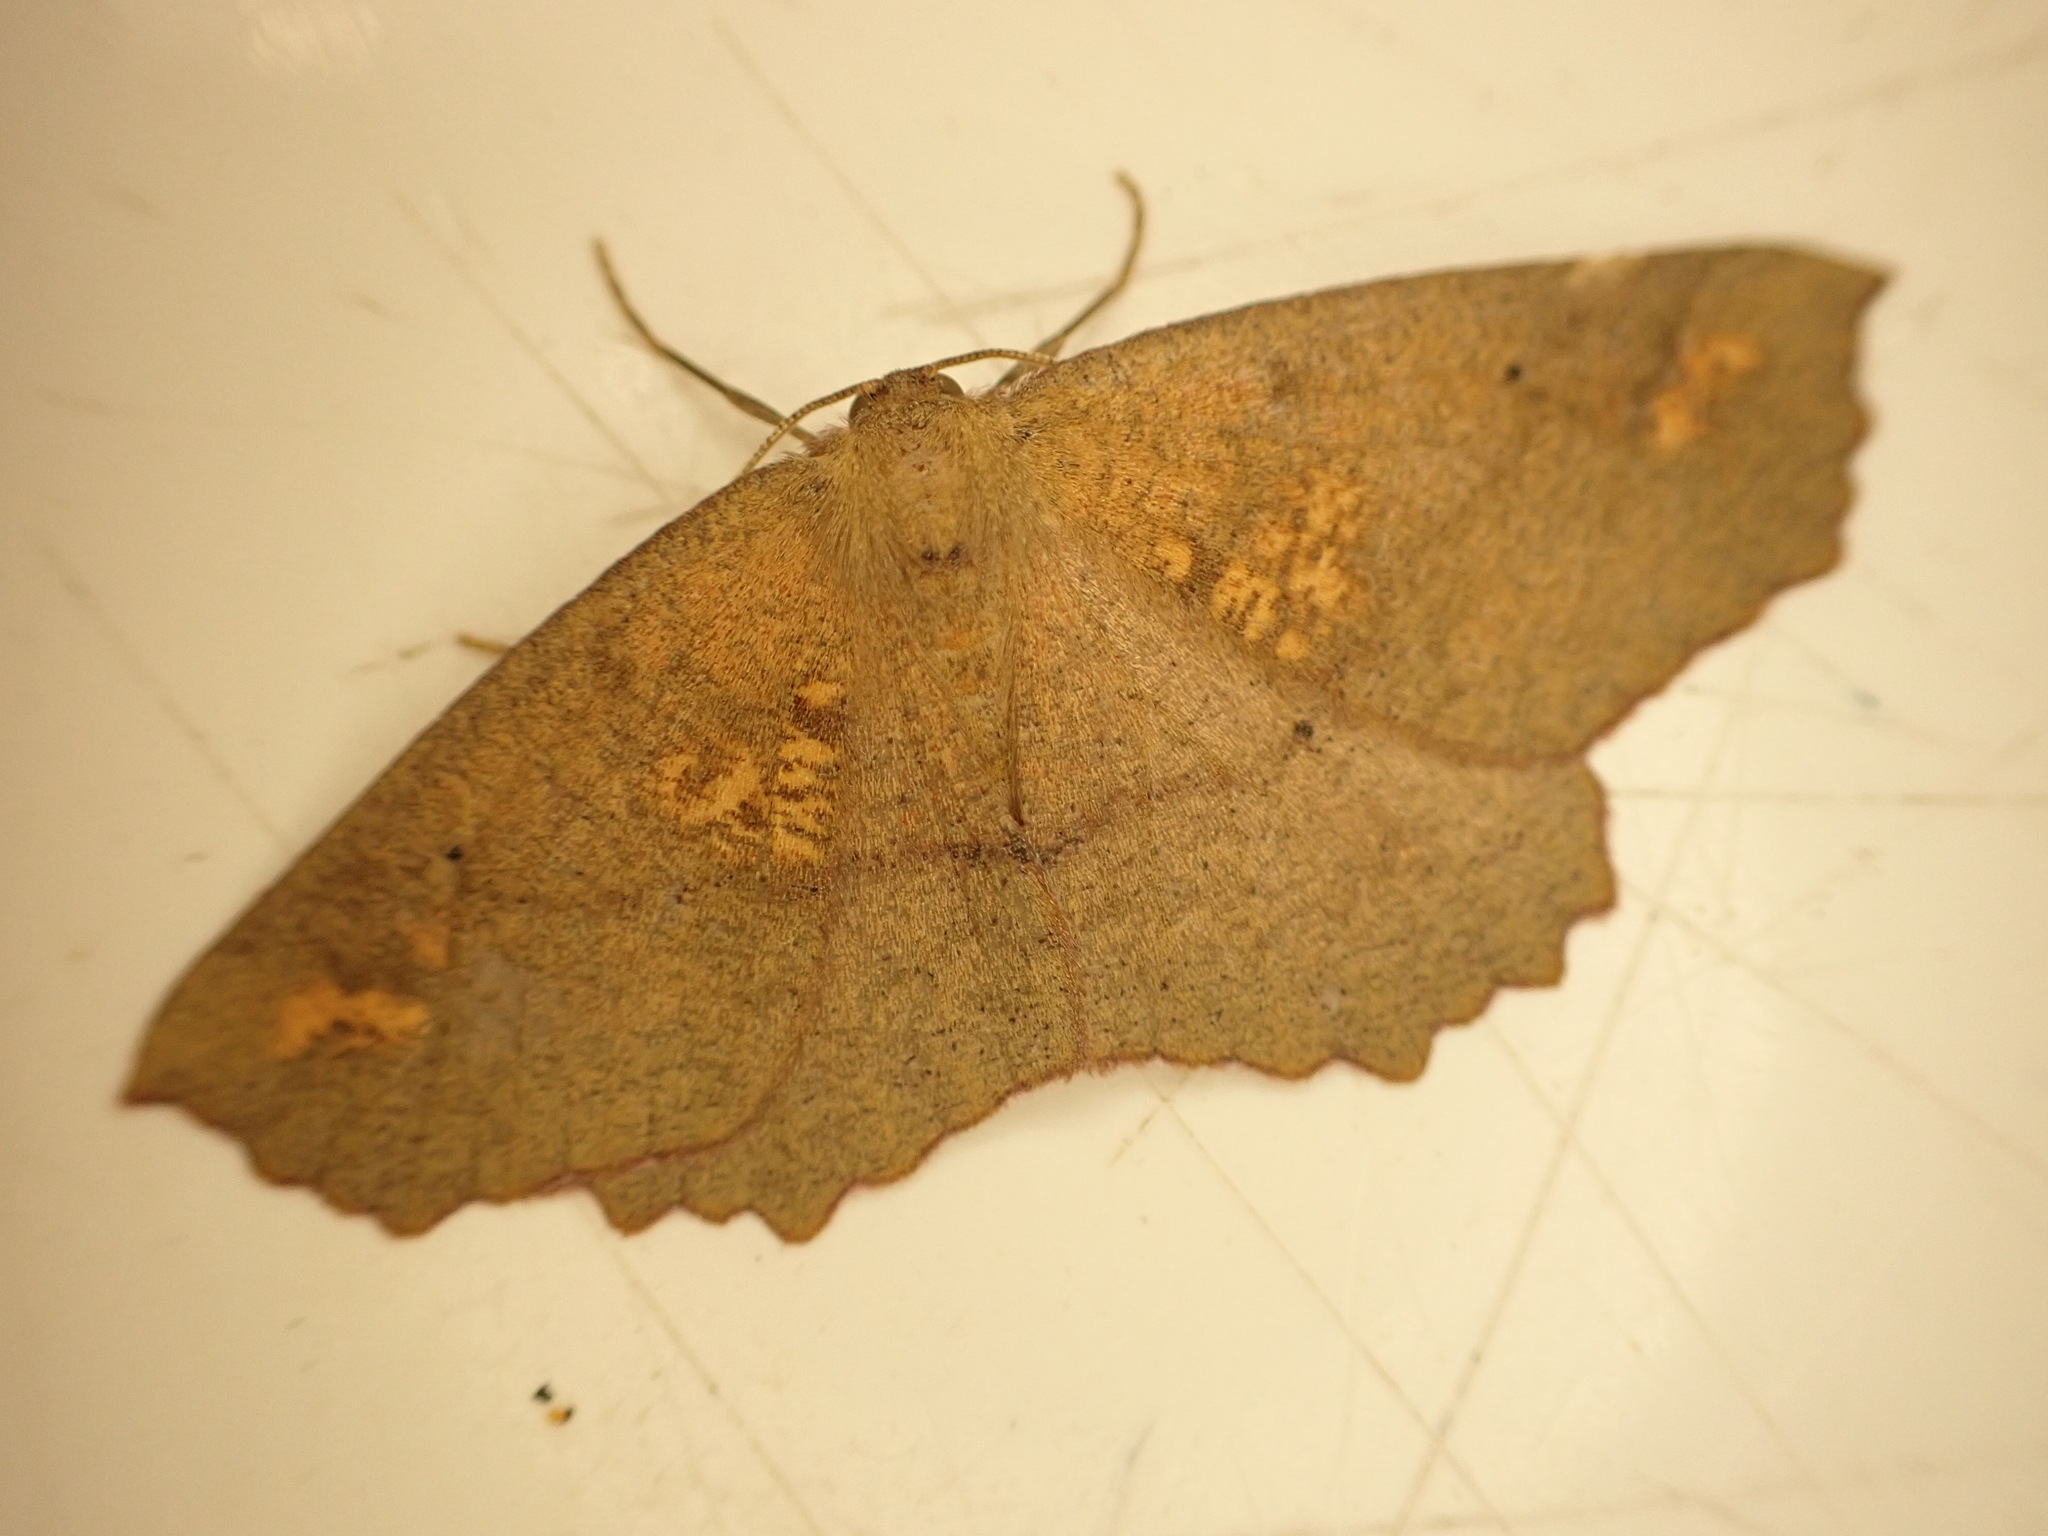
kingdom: Animalia
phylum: Arthropoda
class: Insecta
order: Lepidoptera
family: Geometridae
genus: Xyridacma
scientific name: Xyridacma ustaria
